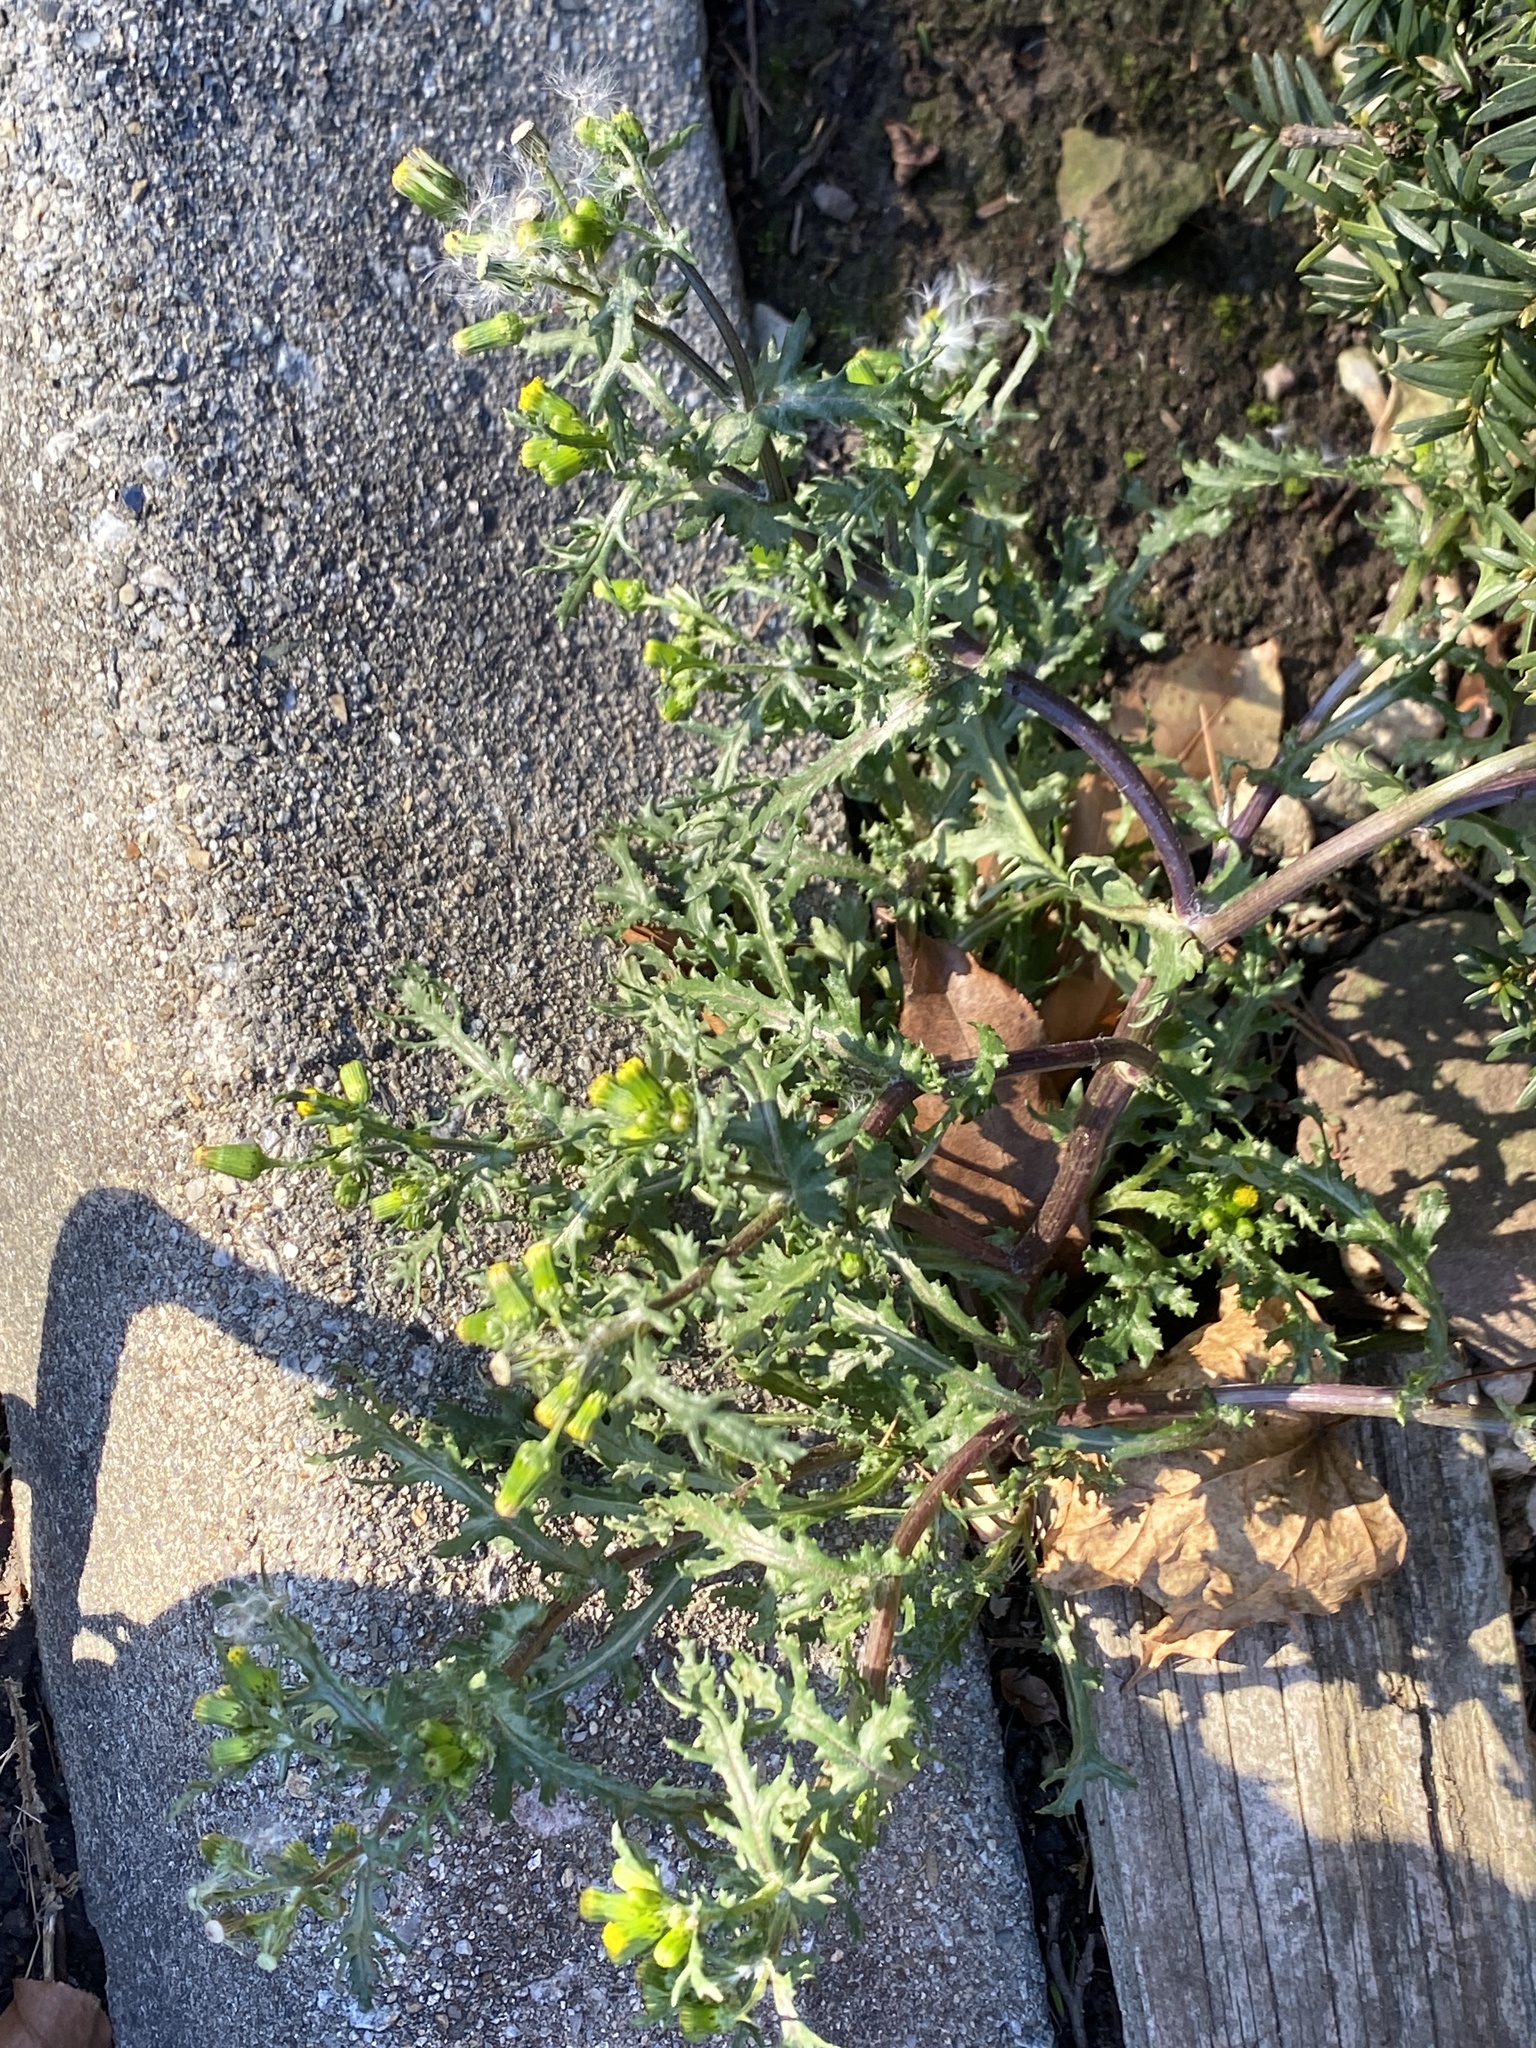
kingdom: Plantae
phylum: Tracheophyta
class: Magnoliopsida
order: Asterales
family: Asteraceae
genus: Senecio
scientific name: Senecio vulgaris
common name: Old-man-in-the-spring
